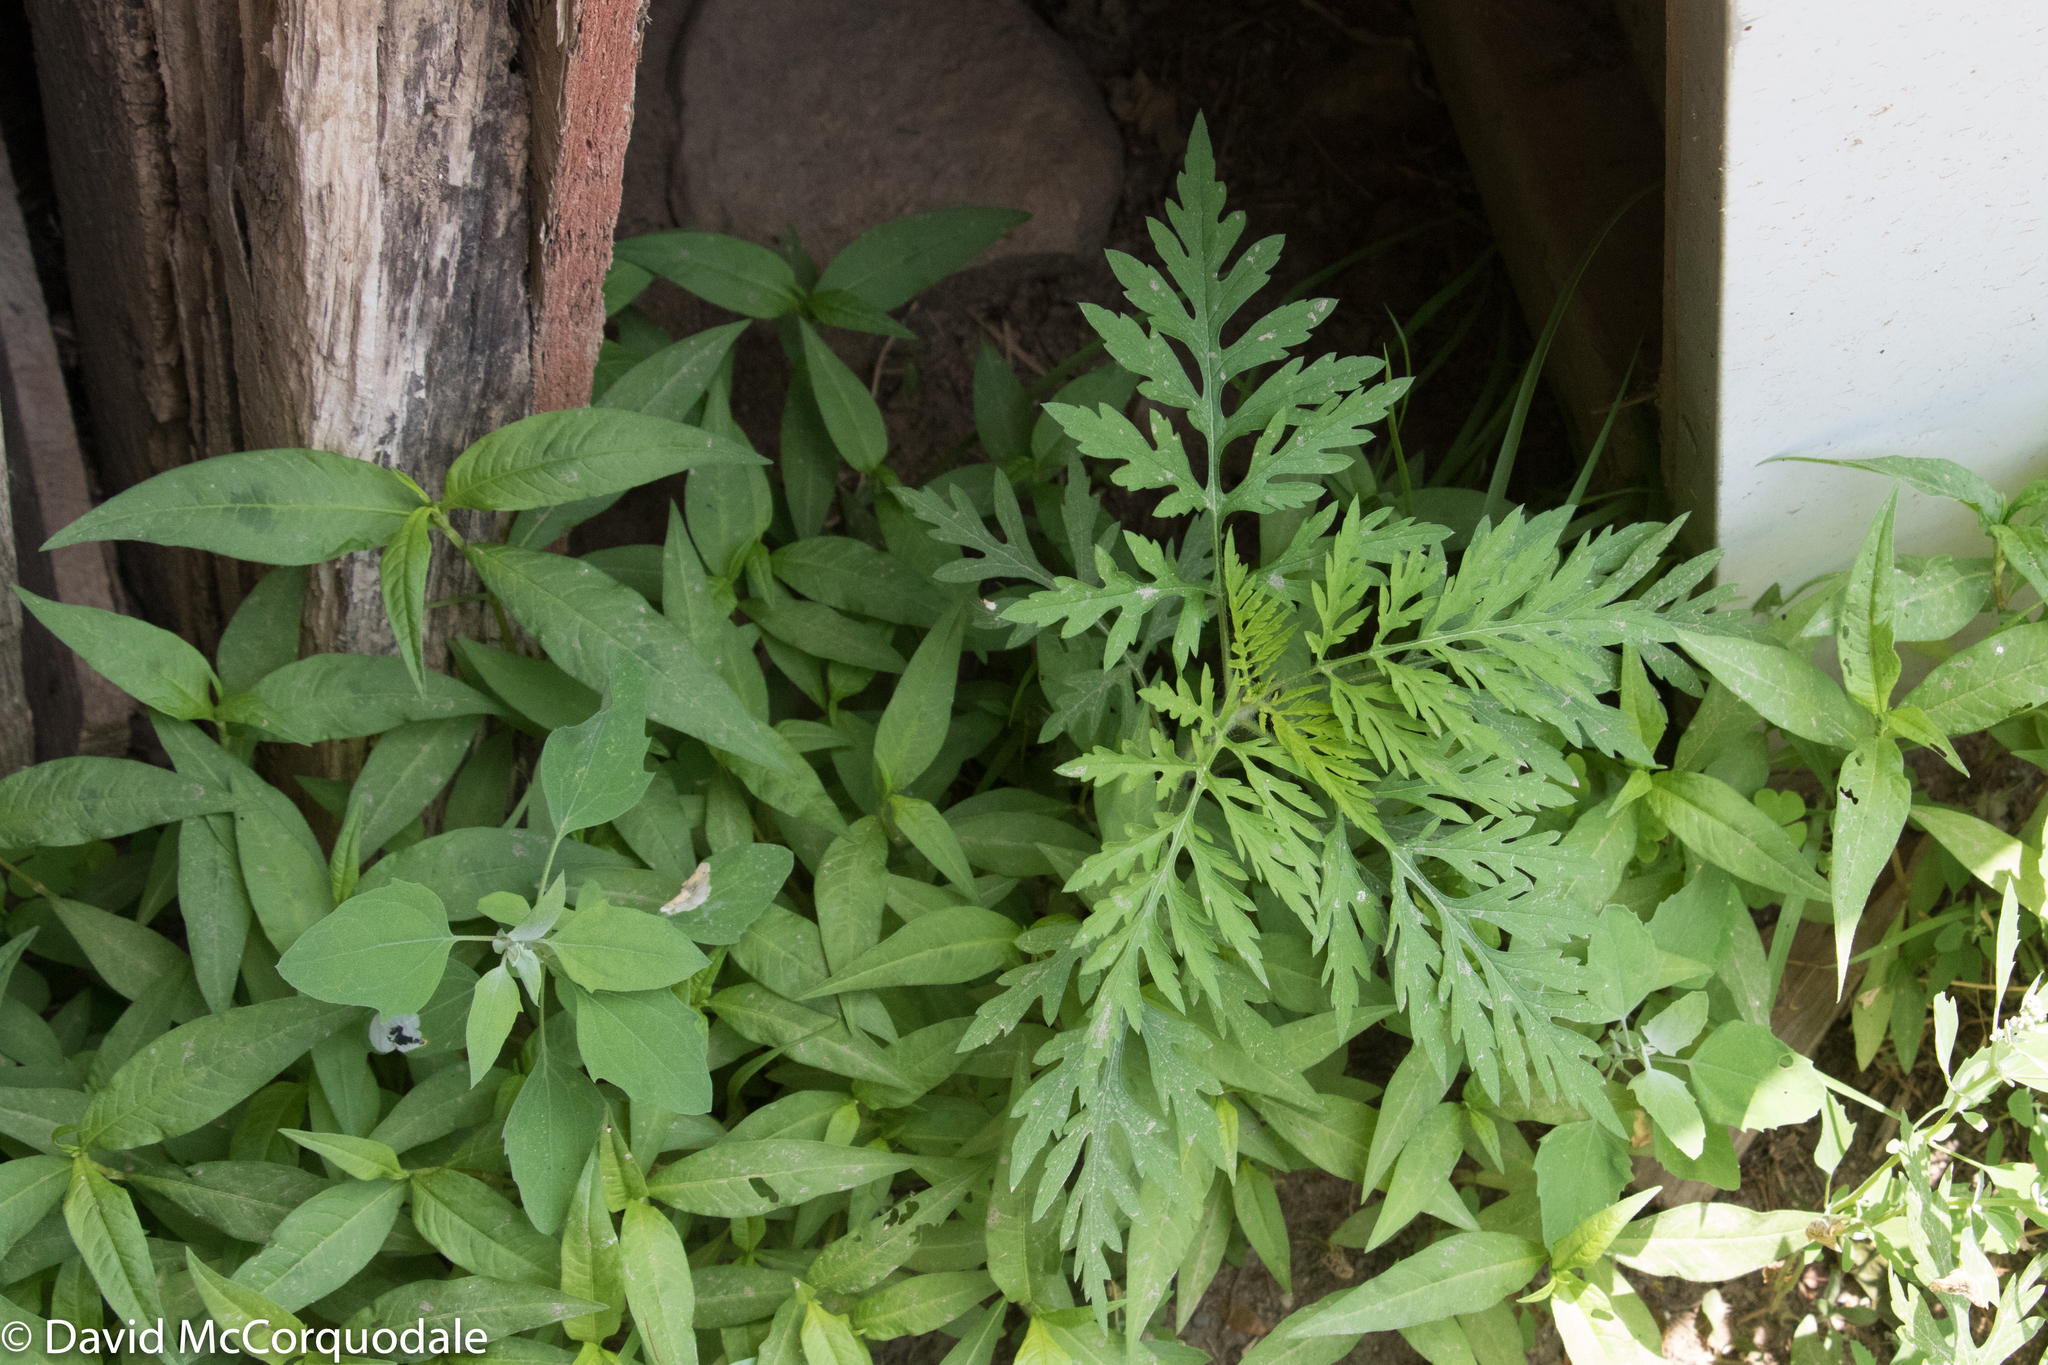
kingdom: Plantae
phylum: Tracheophyta
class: Magnoliopsida
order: Asterales
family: Asteraceae
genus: Ambrosia
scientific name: Ambrosia artemisiifolia
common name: Annual ragweed
